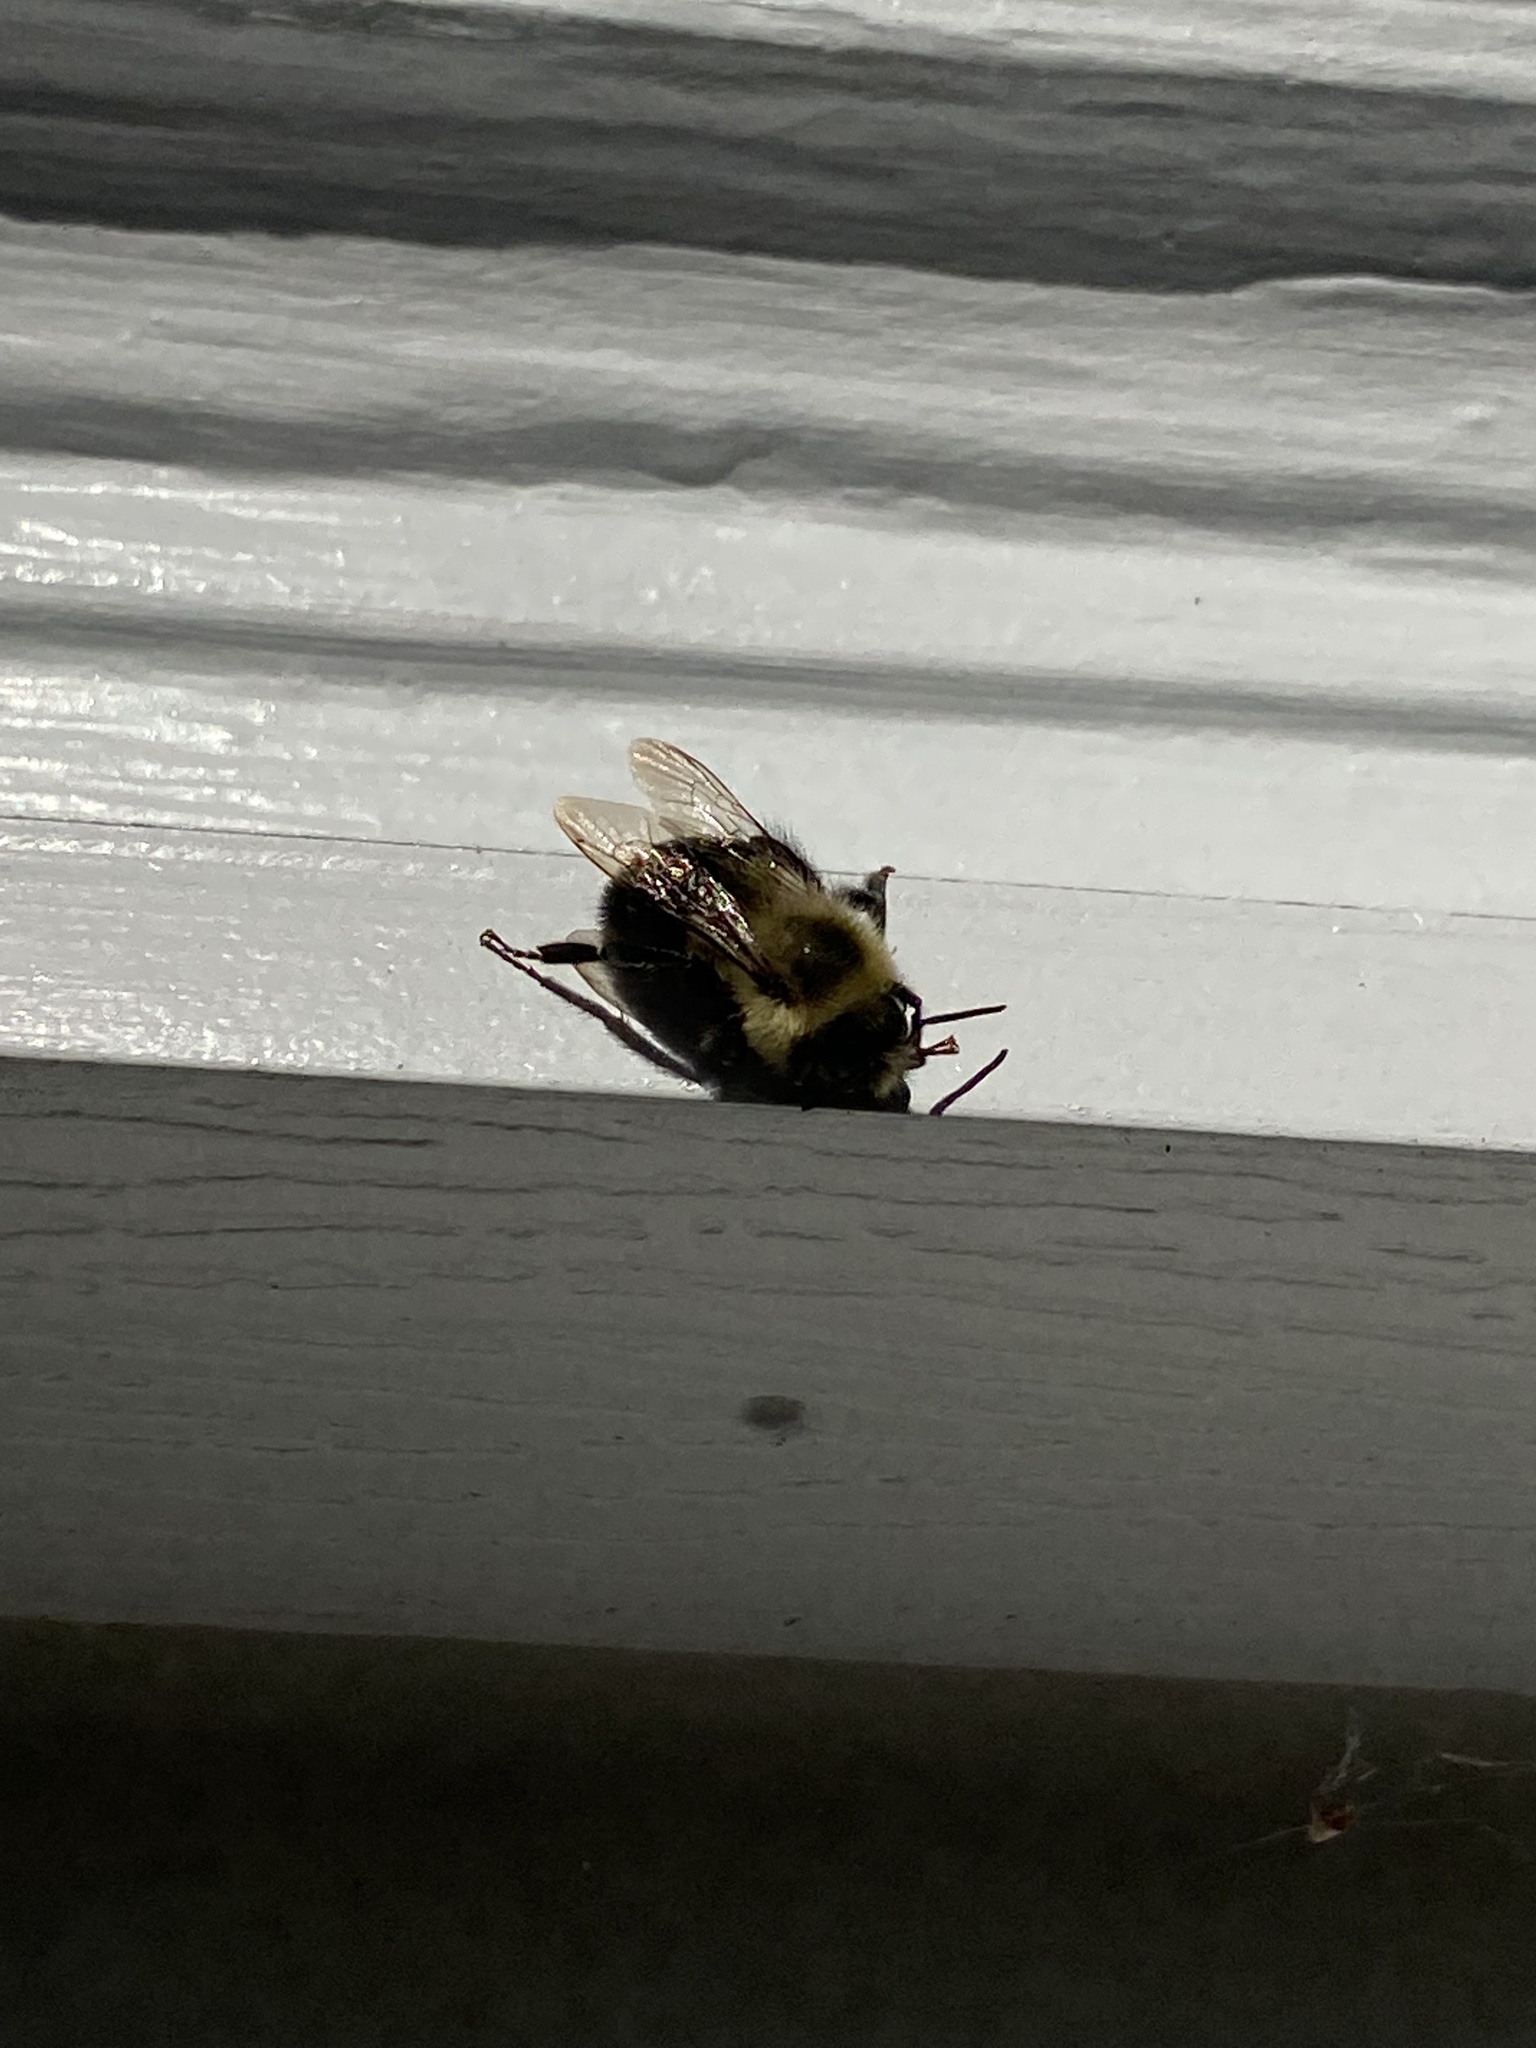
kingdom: Animalia
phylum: Arthropoda
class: Insecta
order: Hymenoptera
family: Apidae
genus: Bombus
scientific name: Bombus impatiens
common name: Common eastern bumble bee
